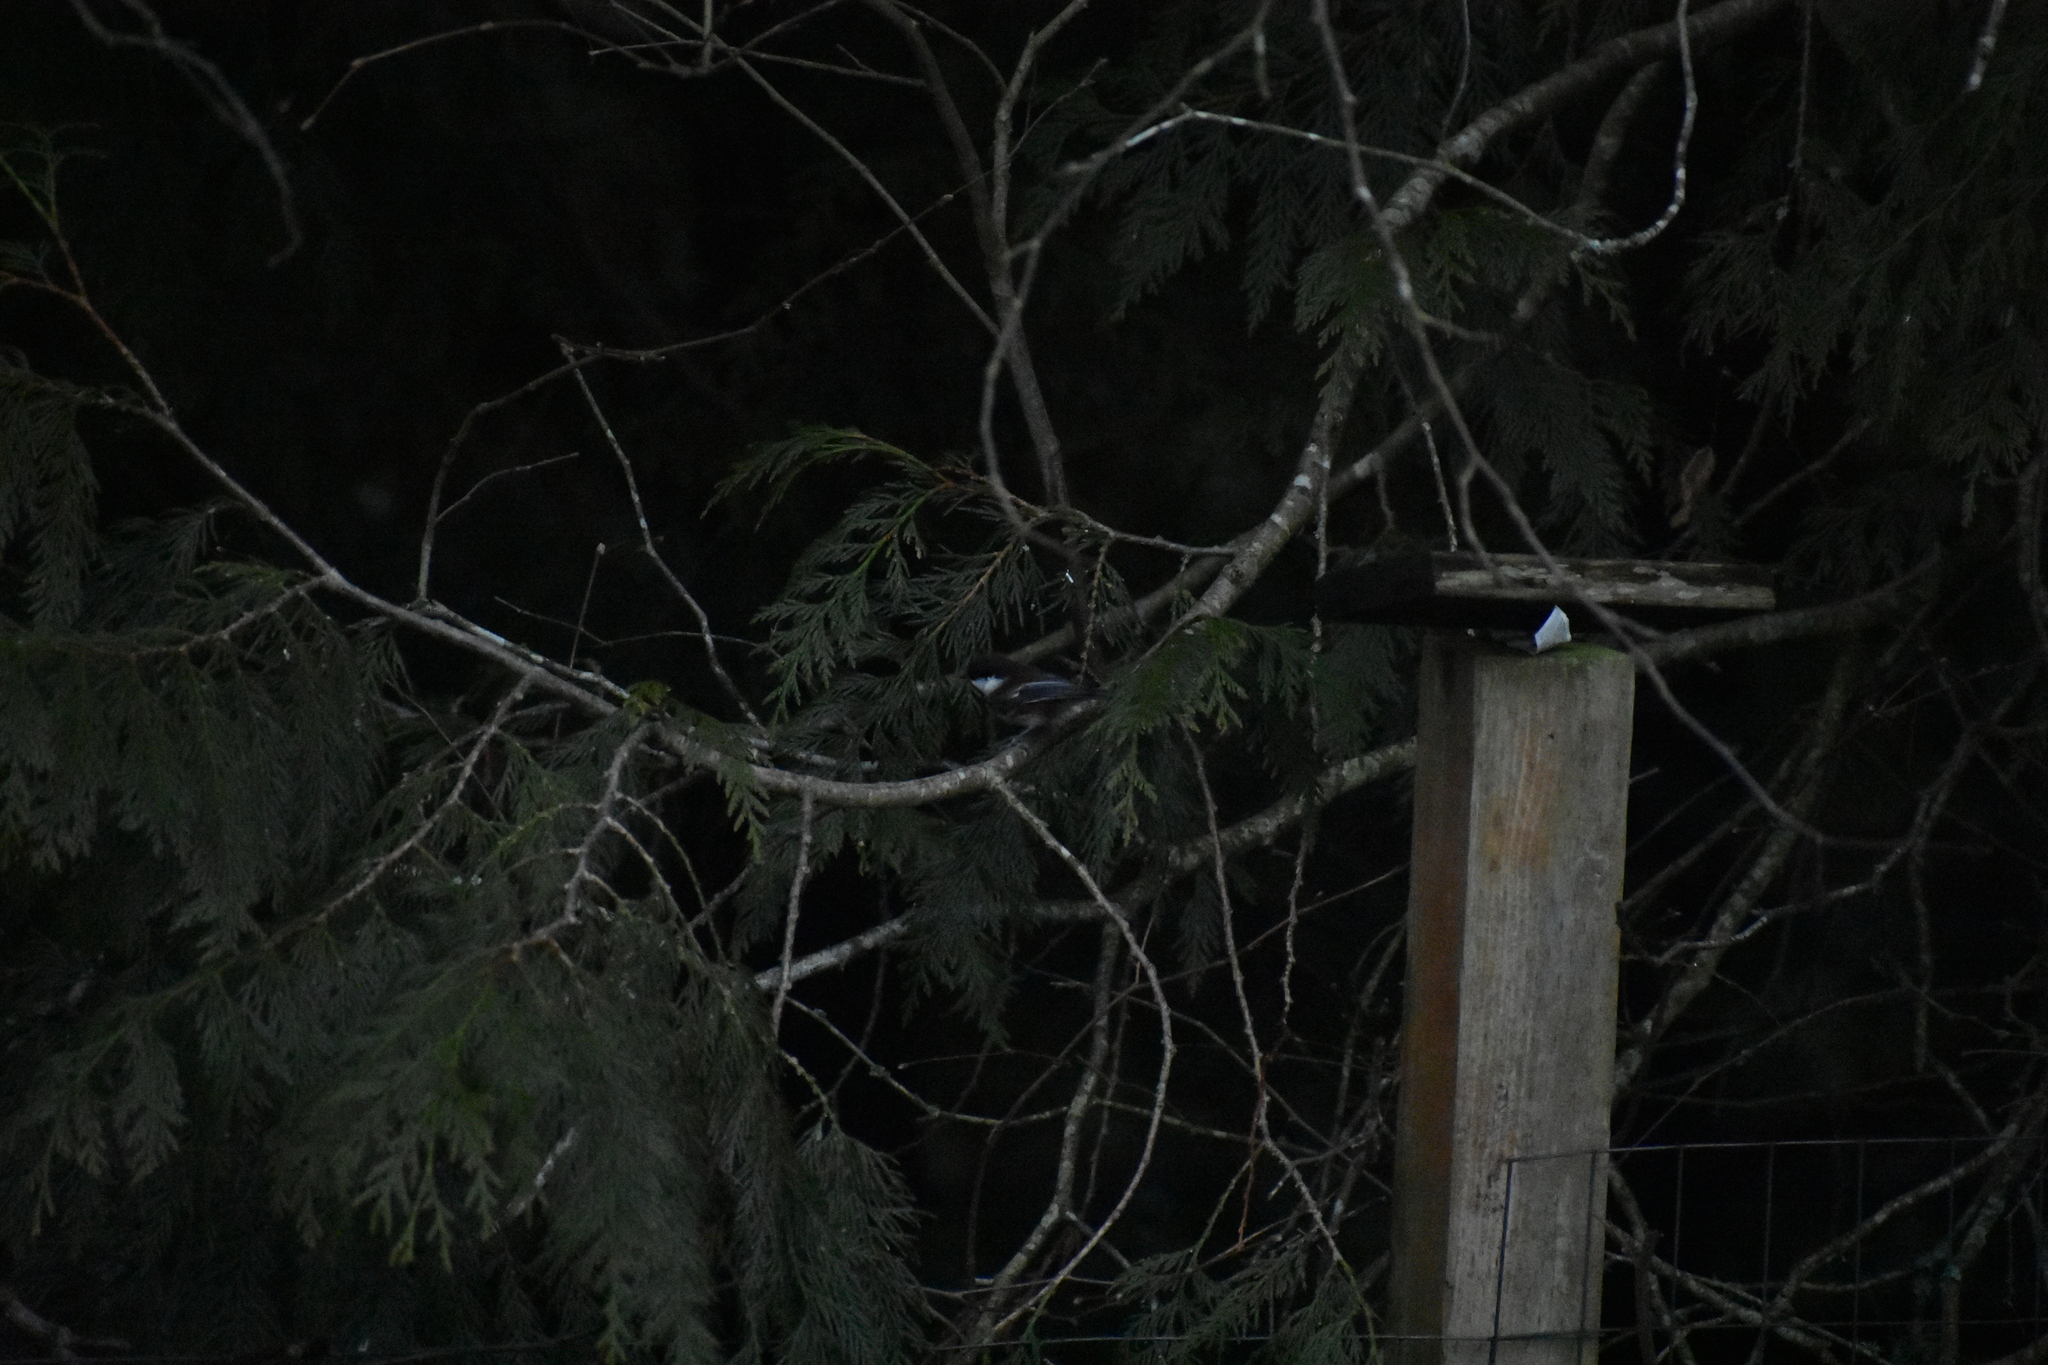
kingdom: Animalia
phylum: Chordata
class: Aves
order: Passeriformes
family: Paridae
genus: Poecile
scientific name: Poecile rufescens
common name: Chestnut-backed chickadee
